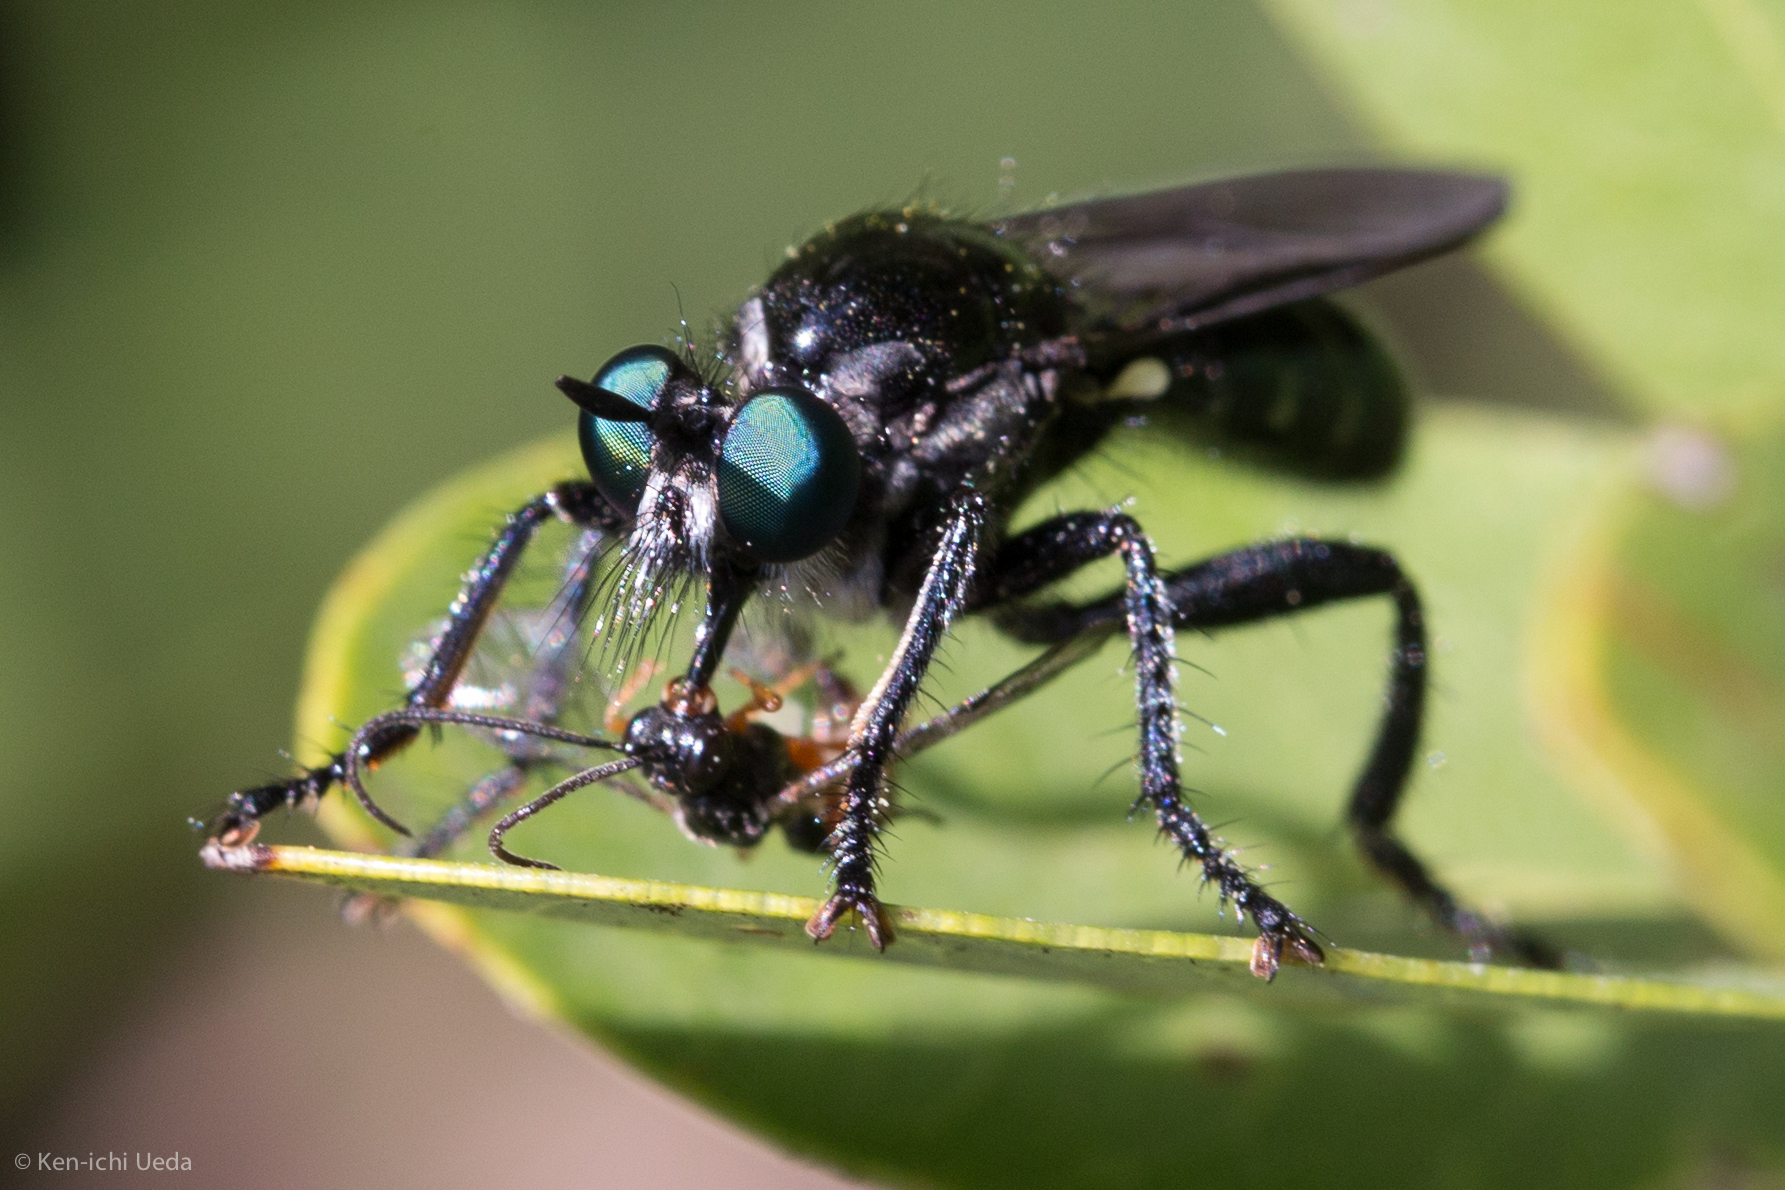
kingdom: Animalia
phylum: Arthropoda
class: Insecta
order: Diptera
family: Asilidae
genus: Laphria
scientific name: Laphria franciscana
